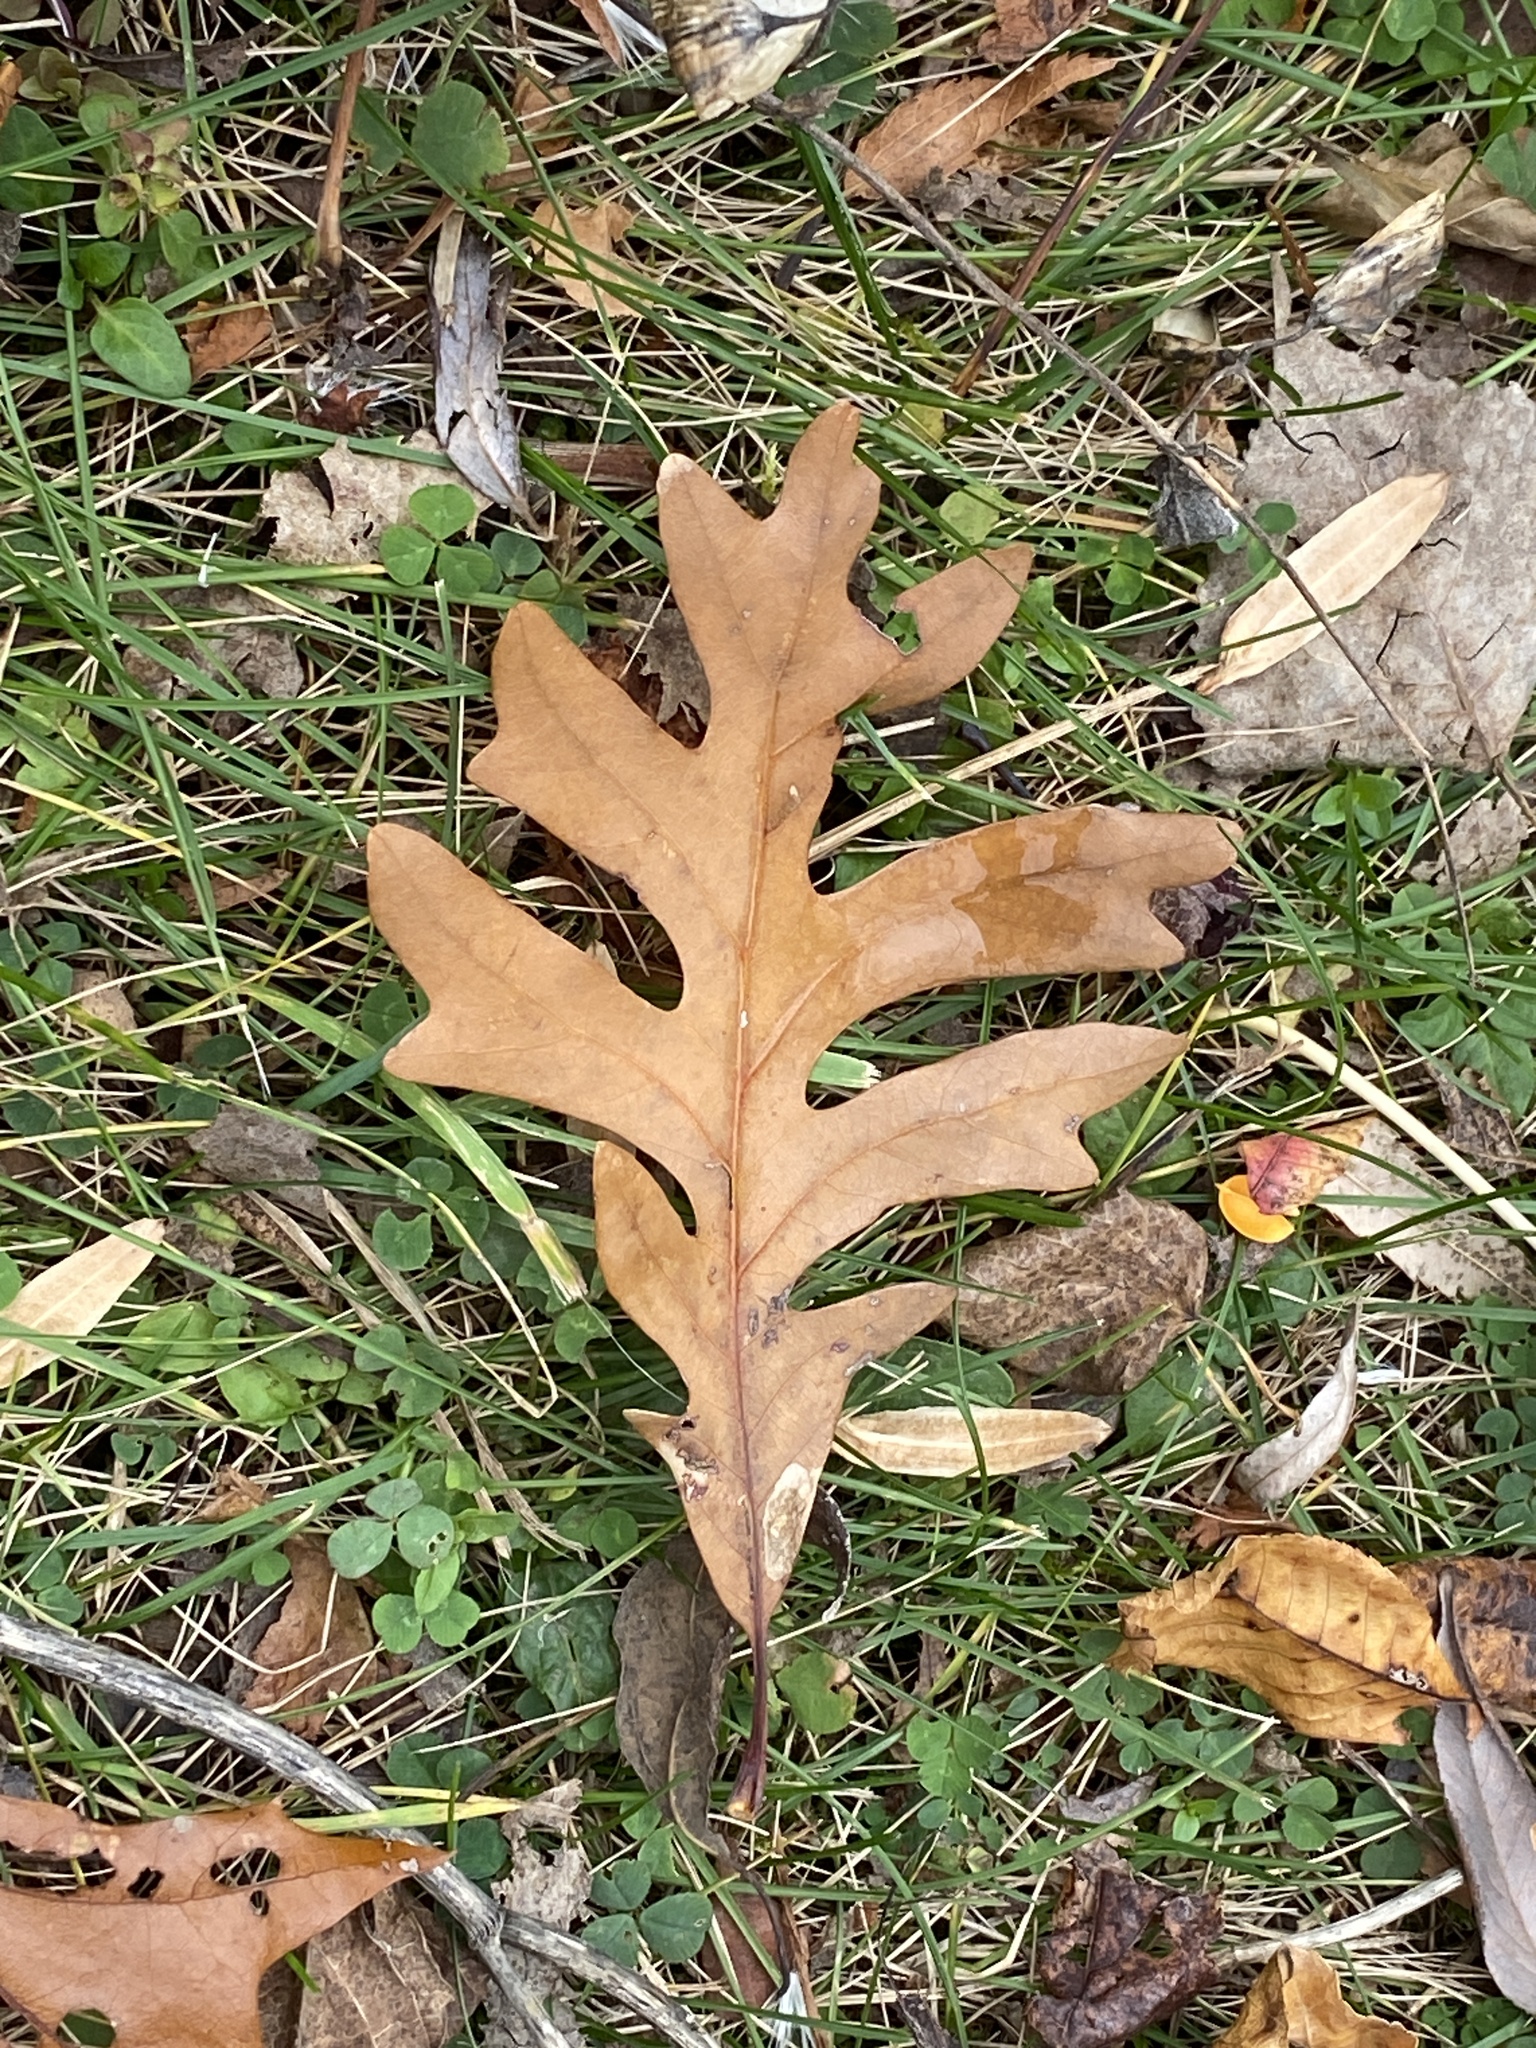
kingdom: Plantae
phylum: Tracheophyta
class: Magnoliopsida
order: Fagales
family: Fagaceae
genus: Quercus
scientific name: Quercus alba
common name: White oak
